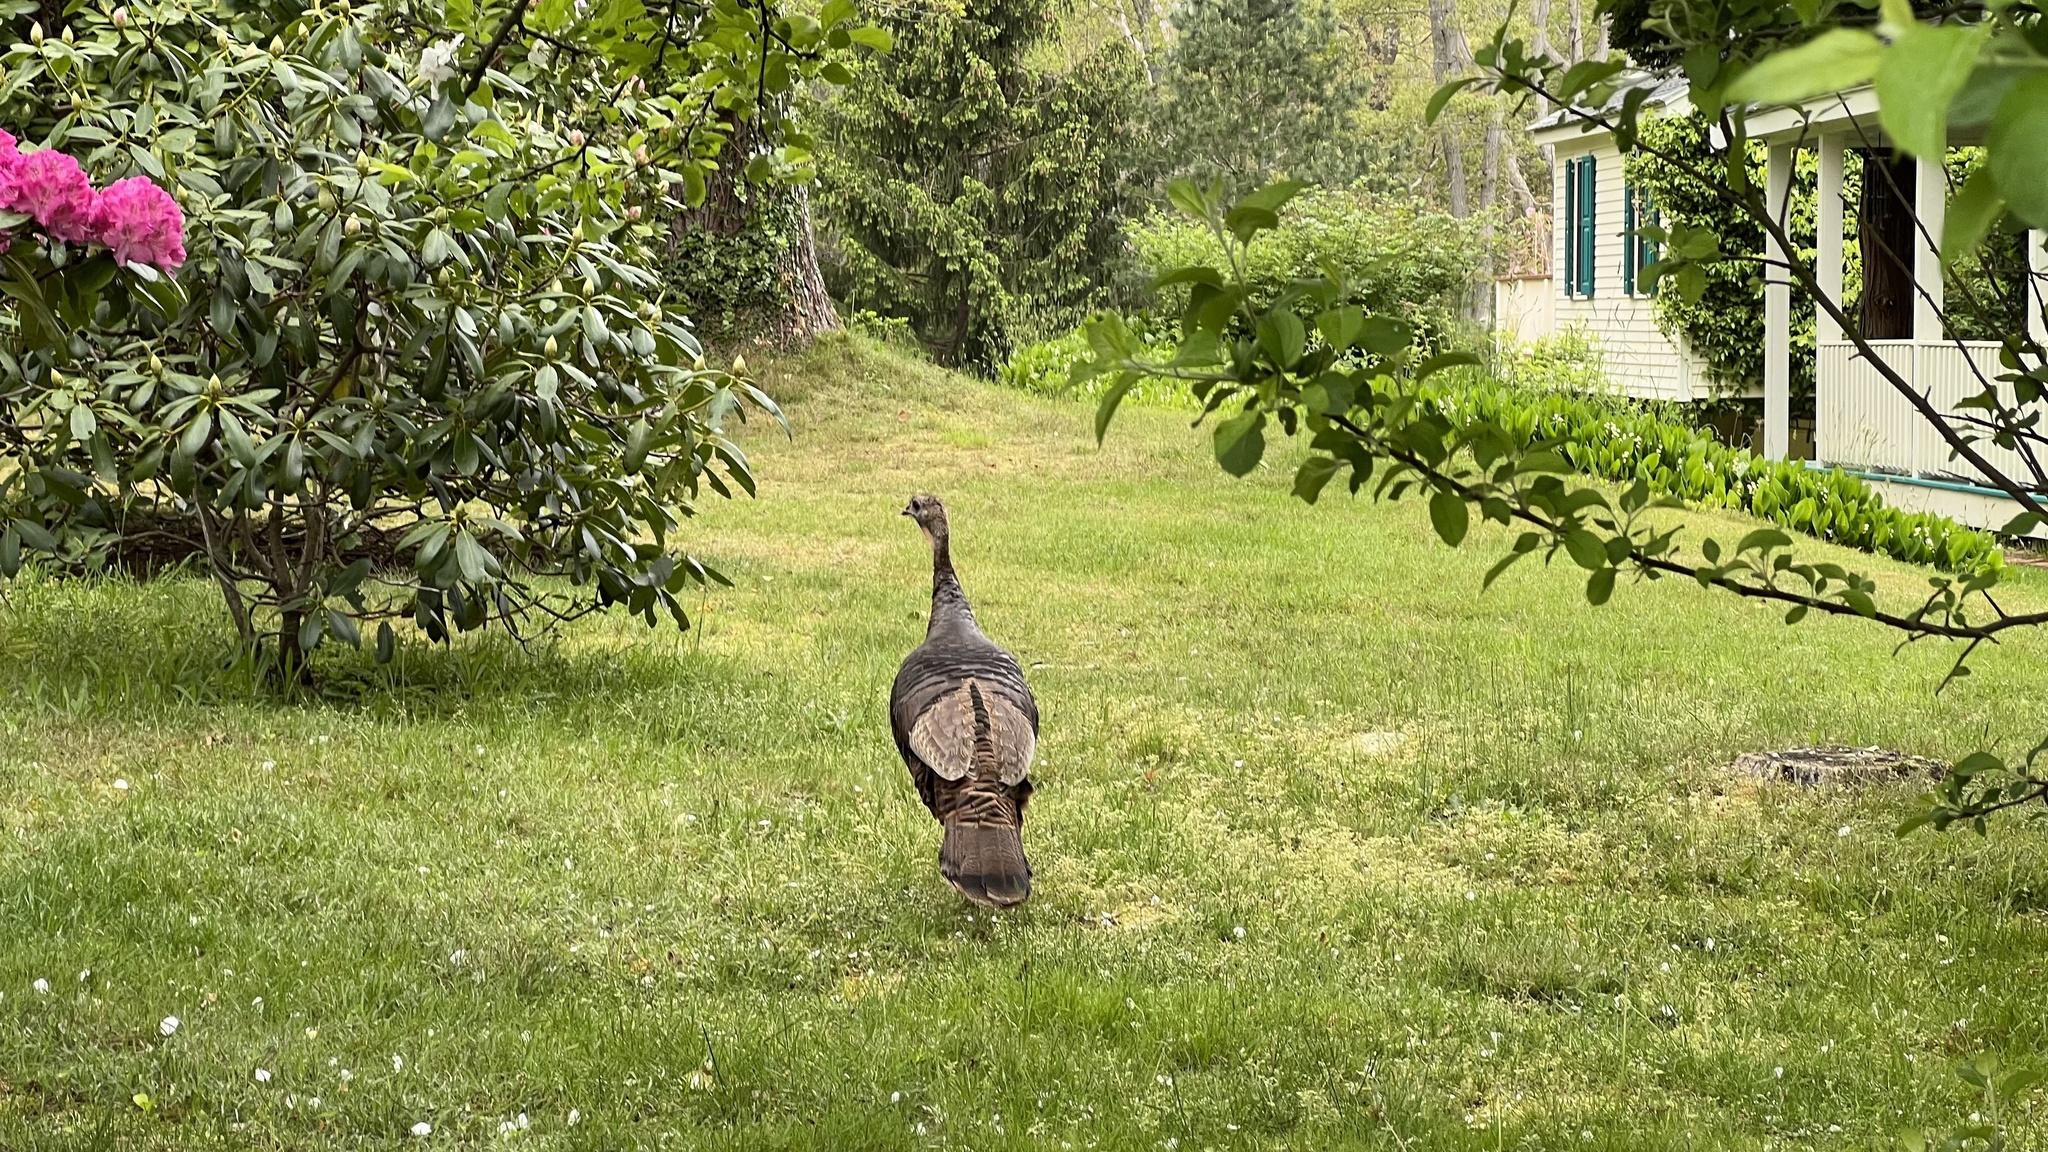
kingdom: Animalia
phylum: Chordata
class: Aves
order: Galliformes
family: Phasianidae
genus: Meleagris
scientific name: Meleagris gallopavo
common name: Wild turkey
